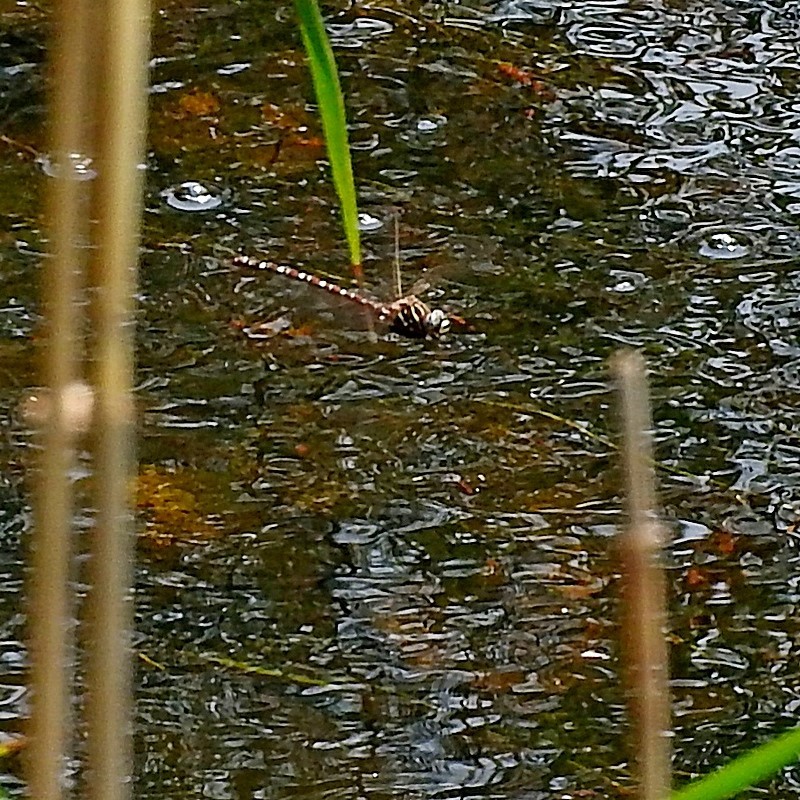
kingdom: Animalia
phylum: Arthropoda
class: Insecta
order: Odonata
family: Aeshnidae
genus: Austroaeschna
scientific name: Austroaeschna unicornis
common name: Unicorn darner
